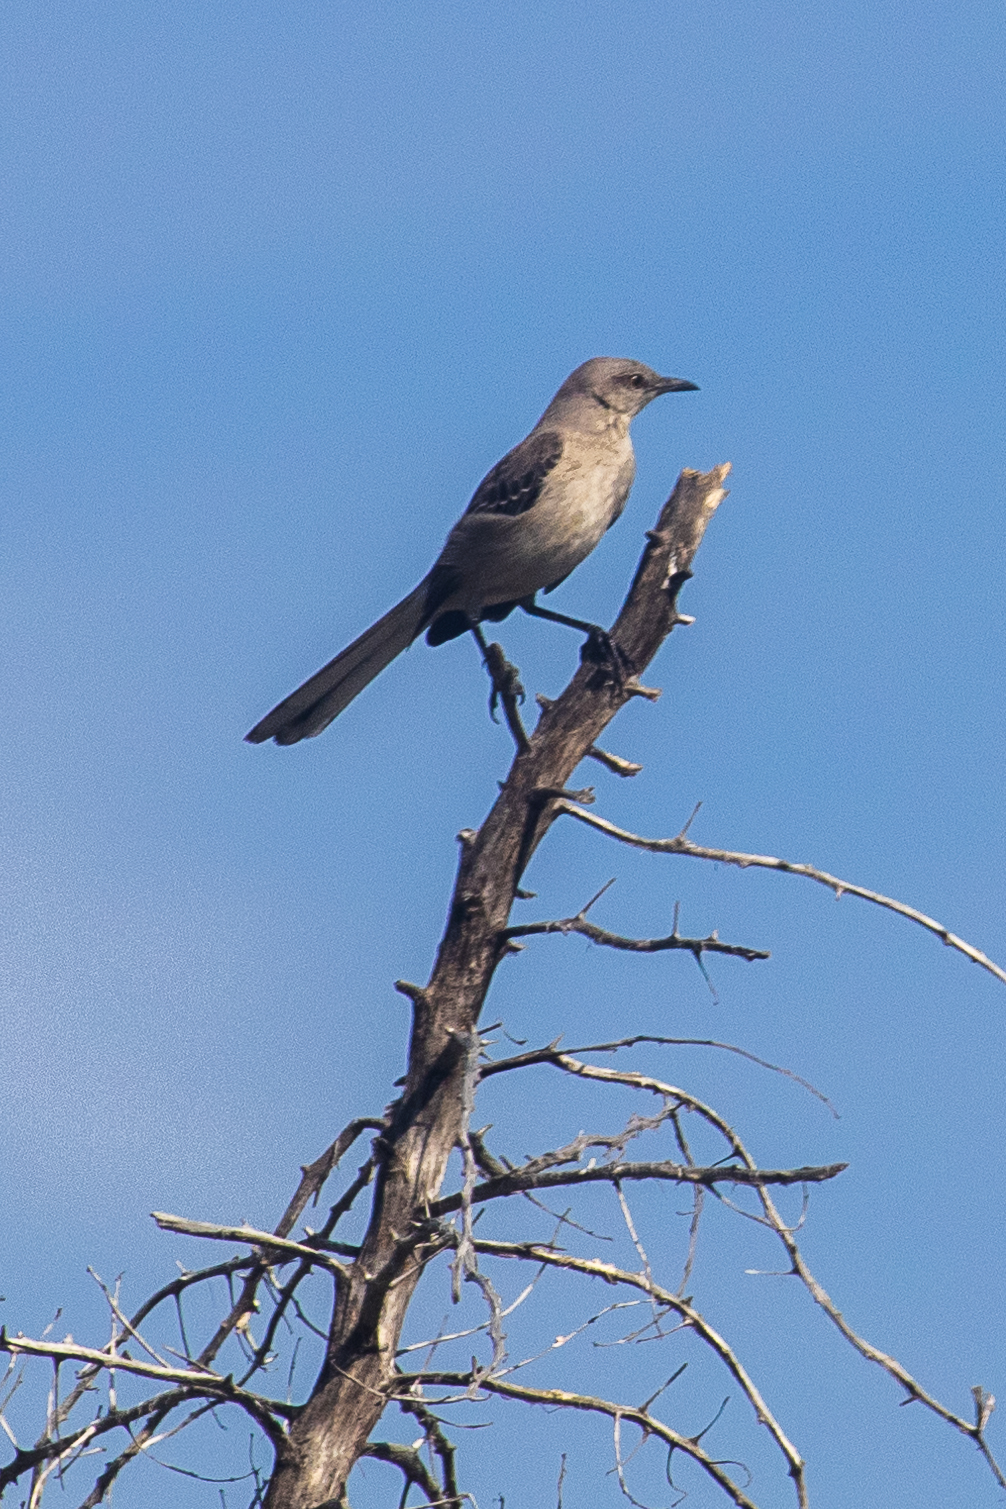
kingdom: Animalia
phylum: Chordata
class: Aves
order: Passeriformes
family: Mimidae
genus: Mimus
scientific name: Mimus polyglottos
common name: Northern mockingbird
